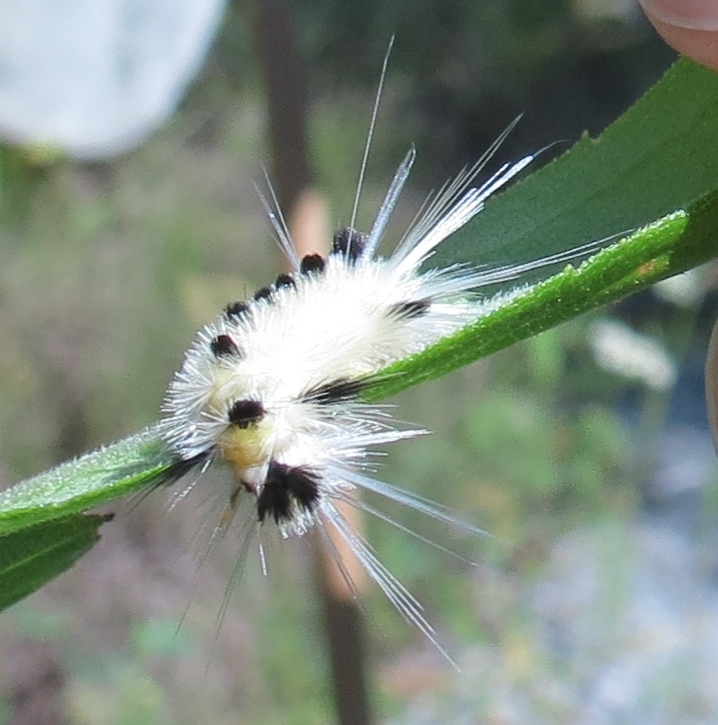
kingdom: Animalia
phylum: Arthropoda
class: Insecta
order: Lepidoptera
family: Erebidae
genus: Lophocampa
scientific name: Lophocampa maculata
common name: Spotted tussock moth
